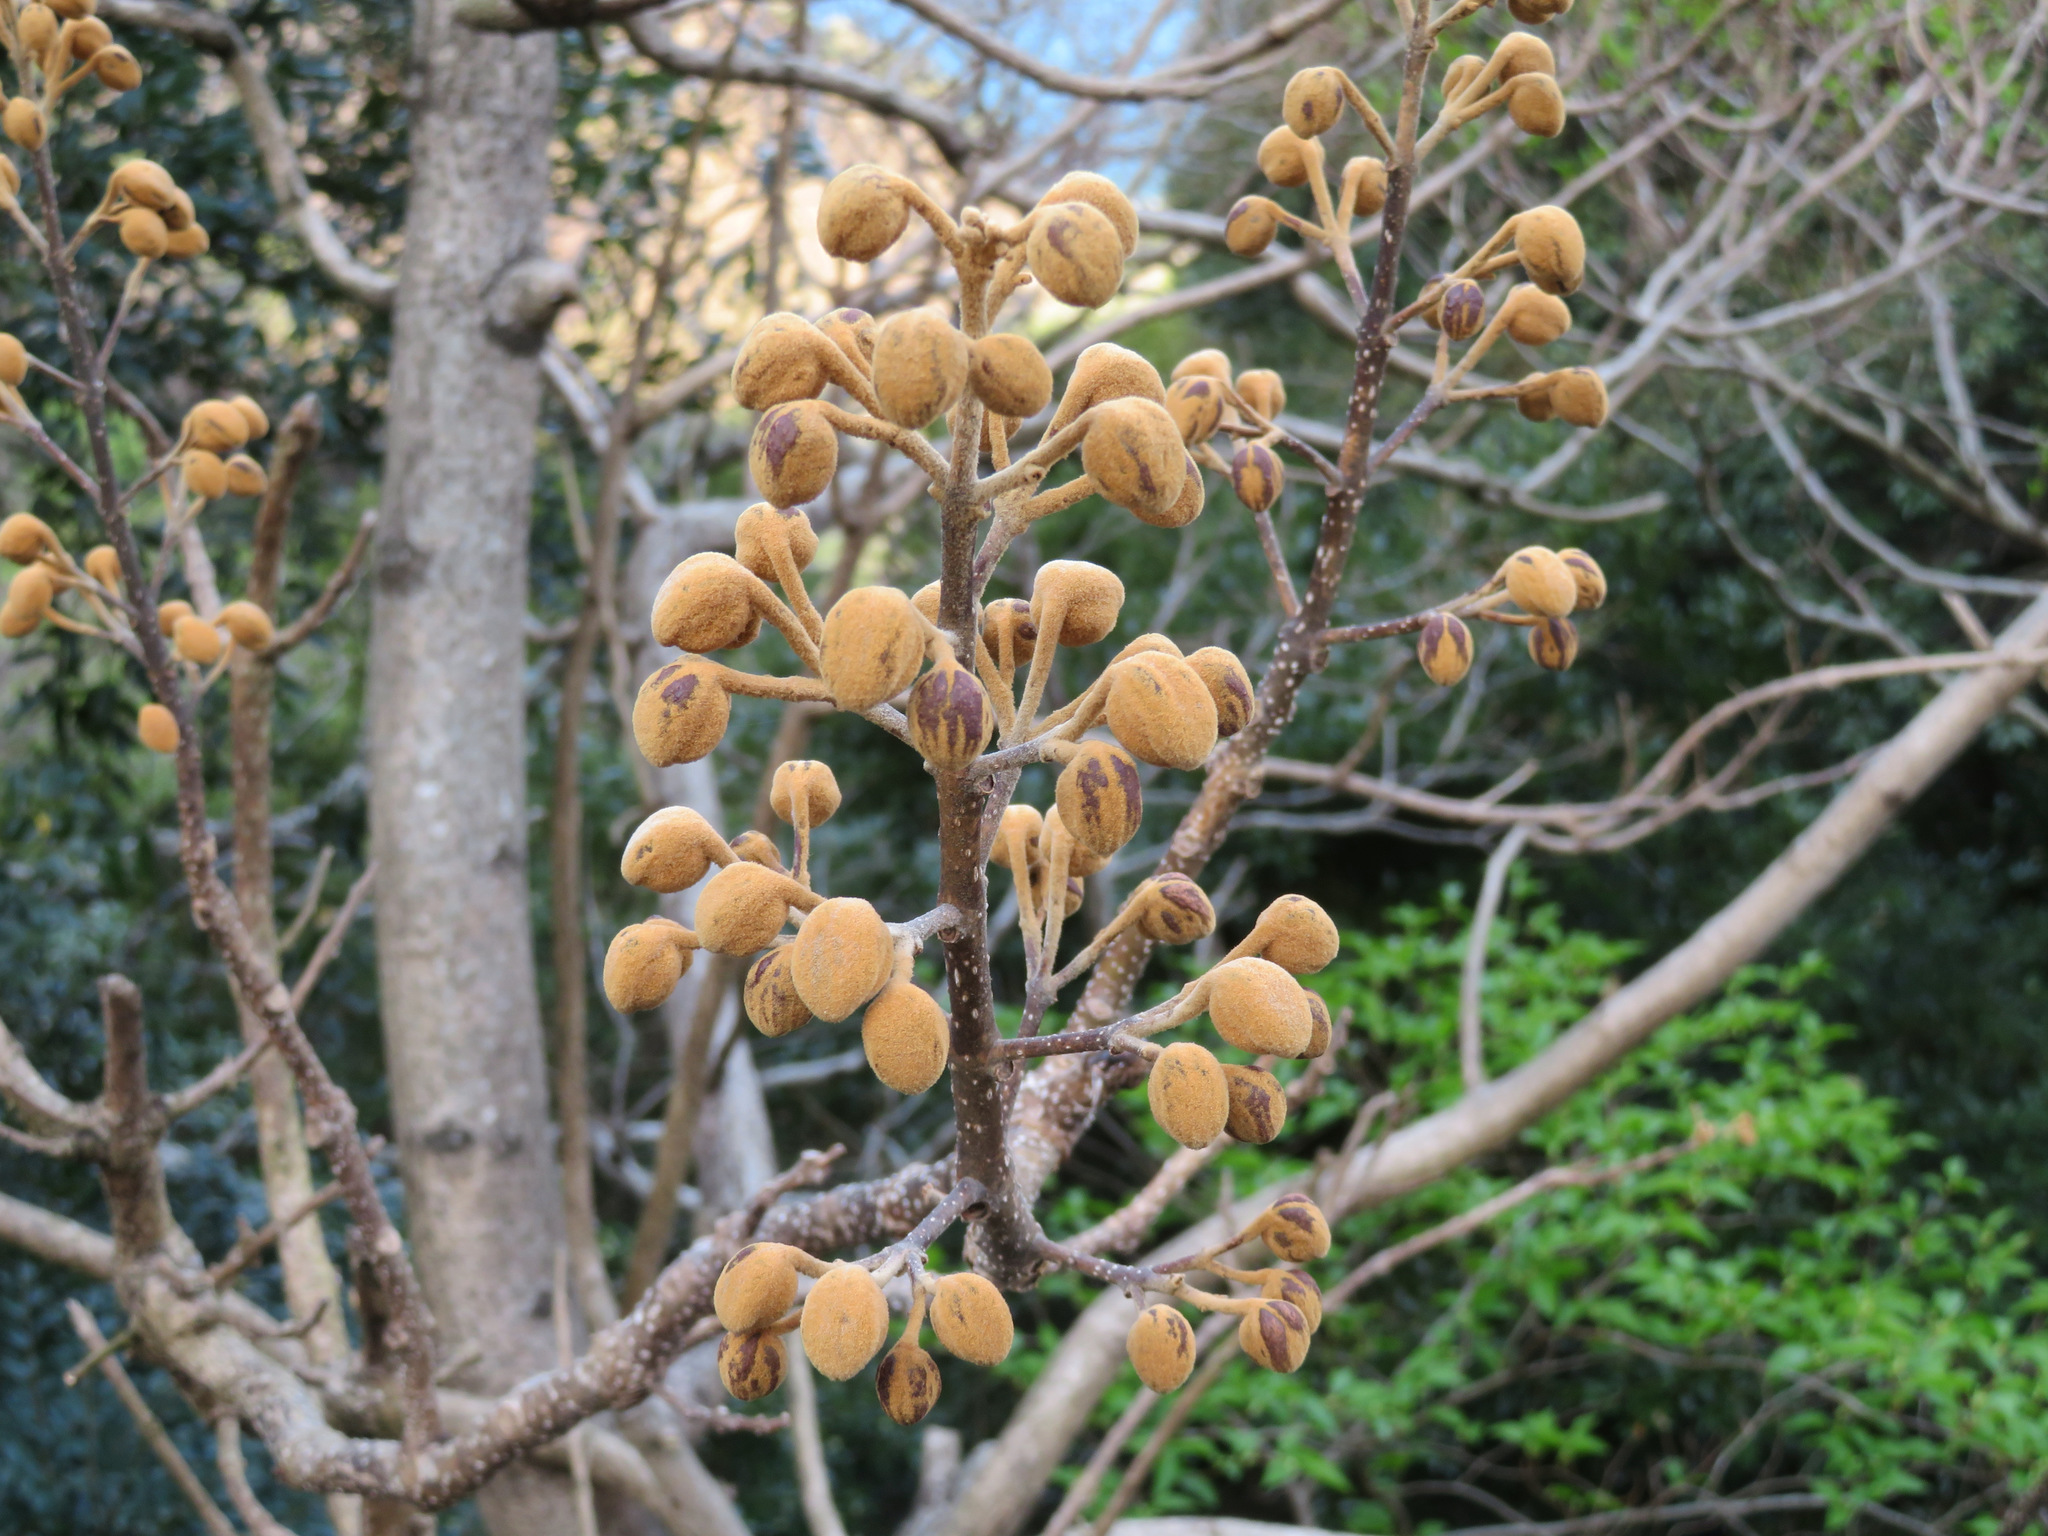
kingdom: Plantae
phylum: Tracheophyta
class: Magnoliopsida
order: Lamiales
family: Paulowniaceae
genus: Paulownia
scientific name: Paulownia tomentosa
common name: Foxglove-tree
